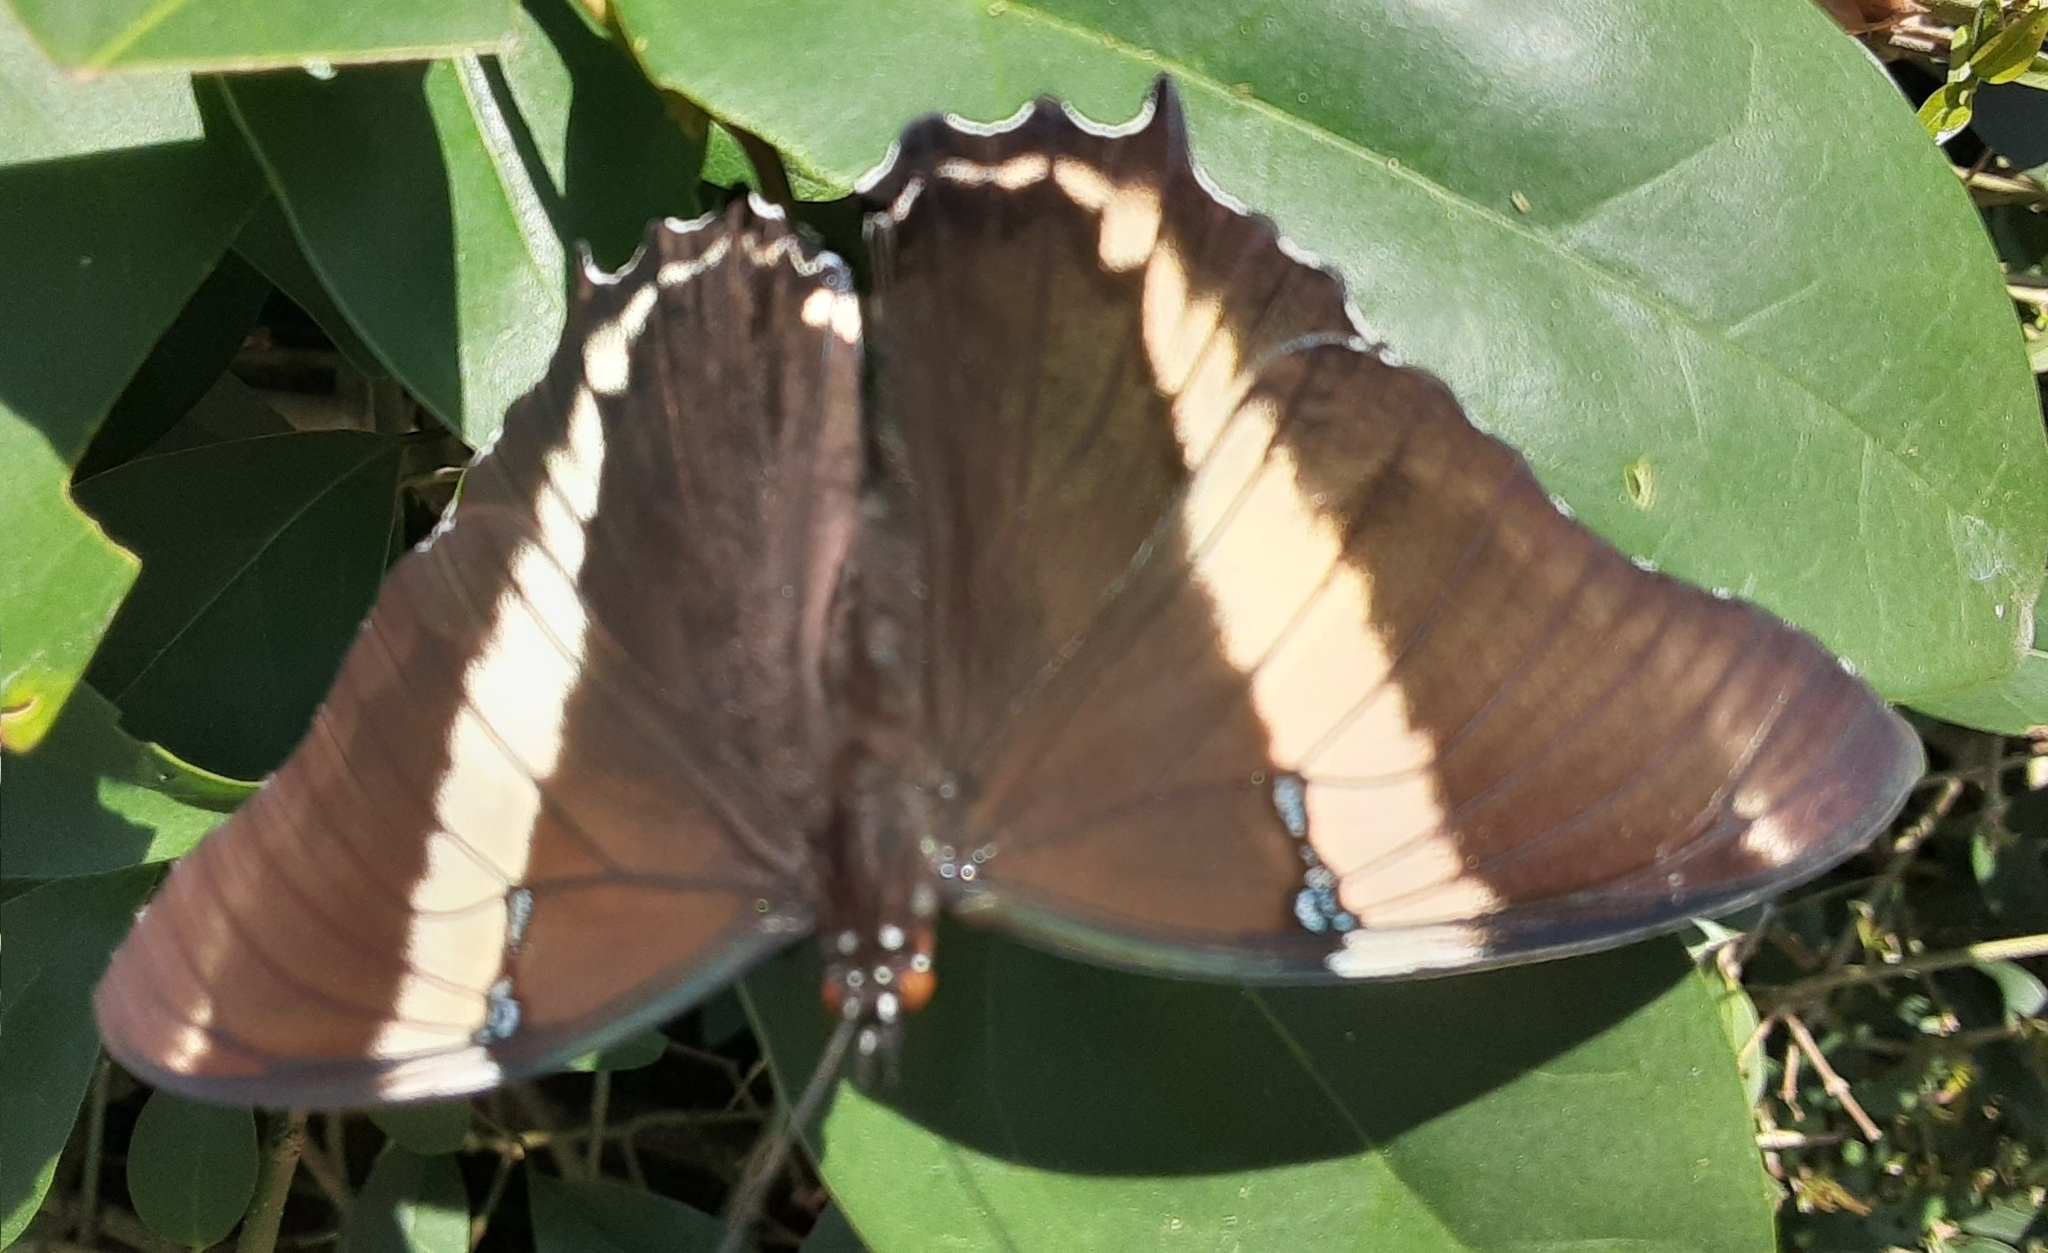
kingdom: Animalia
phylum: Arthropoda
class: Insecta
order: Lepidoptera
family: Nymphalidae
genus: Siproeta
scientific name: Siproeta epaphus
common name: Rusty-tipped page
